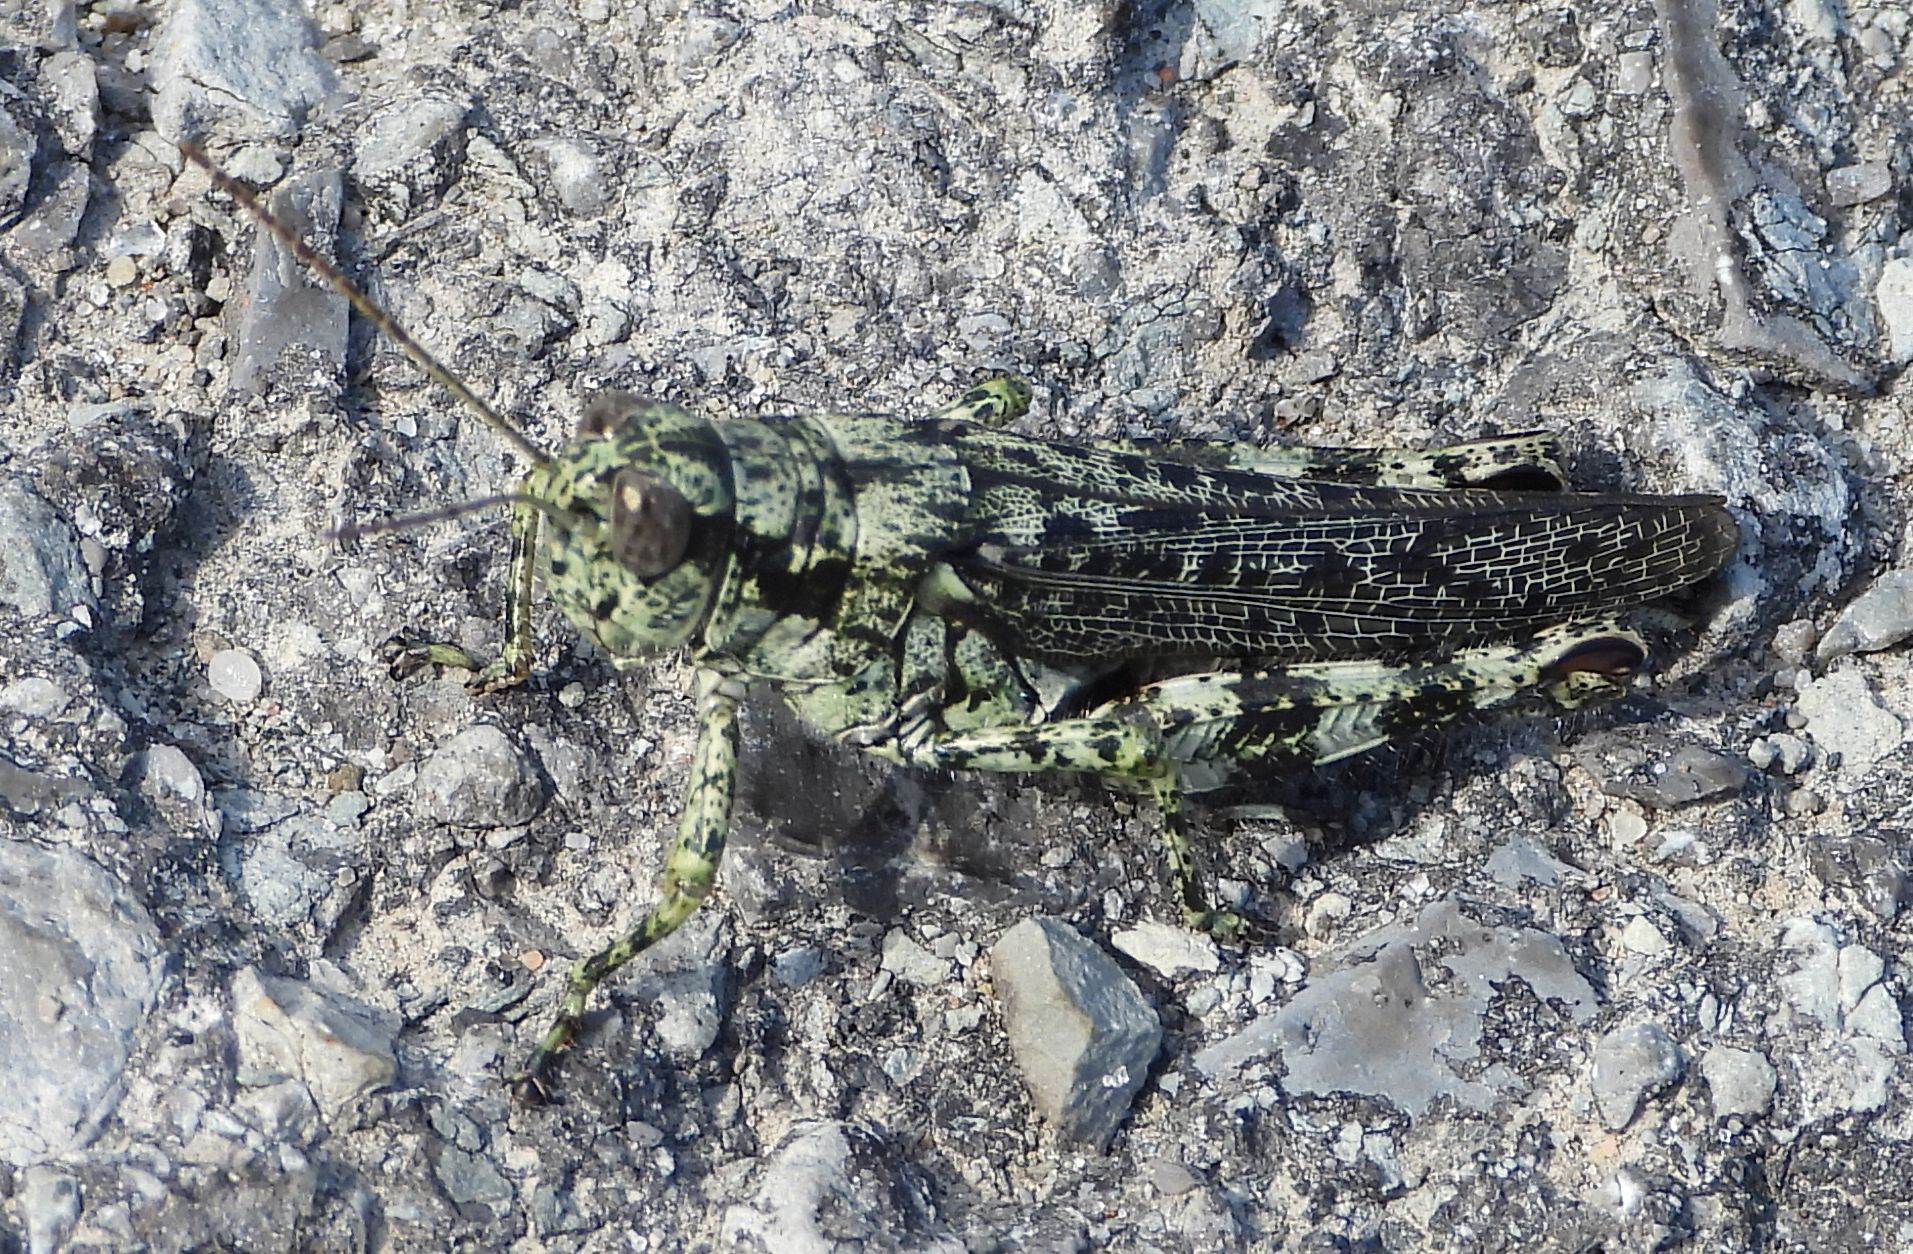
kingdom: Animalia
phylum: Arthropoda
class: Insecta
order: Orthoptera
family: Acrididae
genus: Melanoplus
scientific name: Melanoplus punctulatus
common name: Pine-tree spur-throat grasshopper
